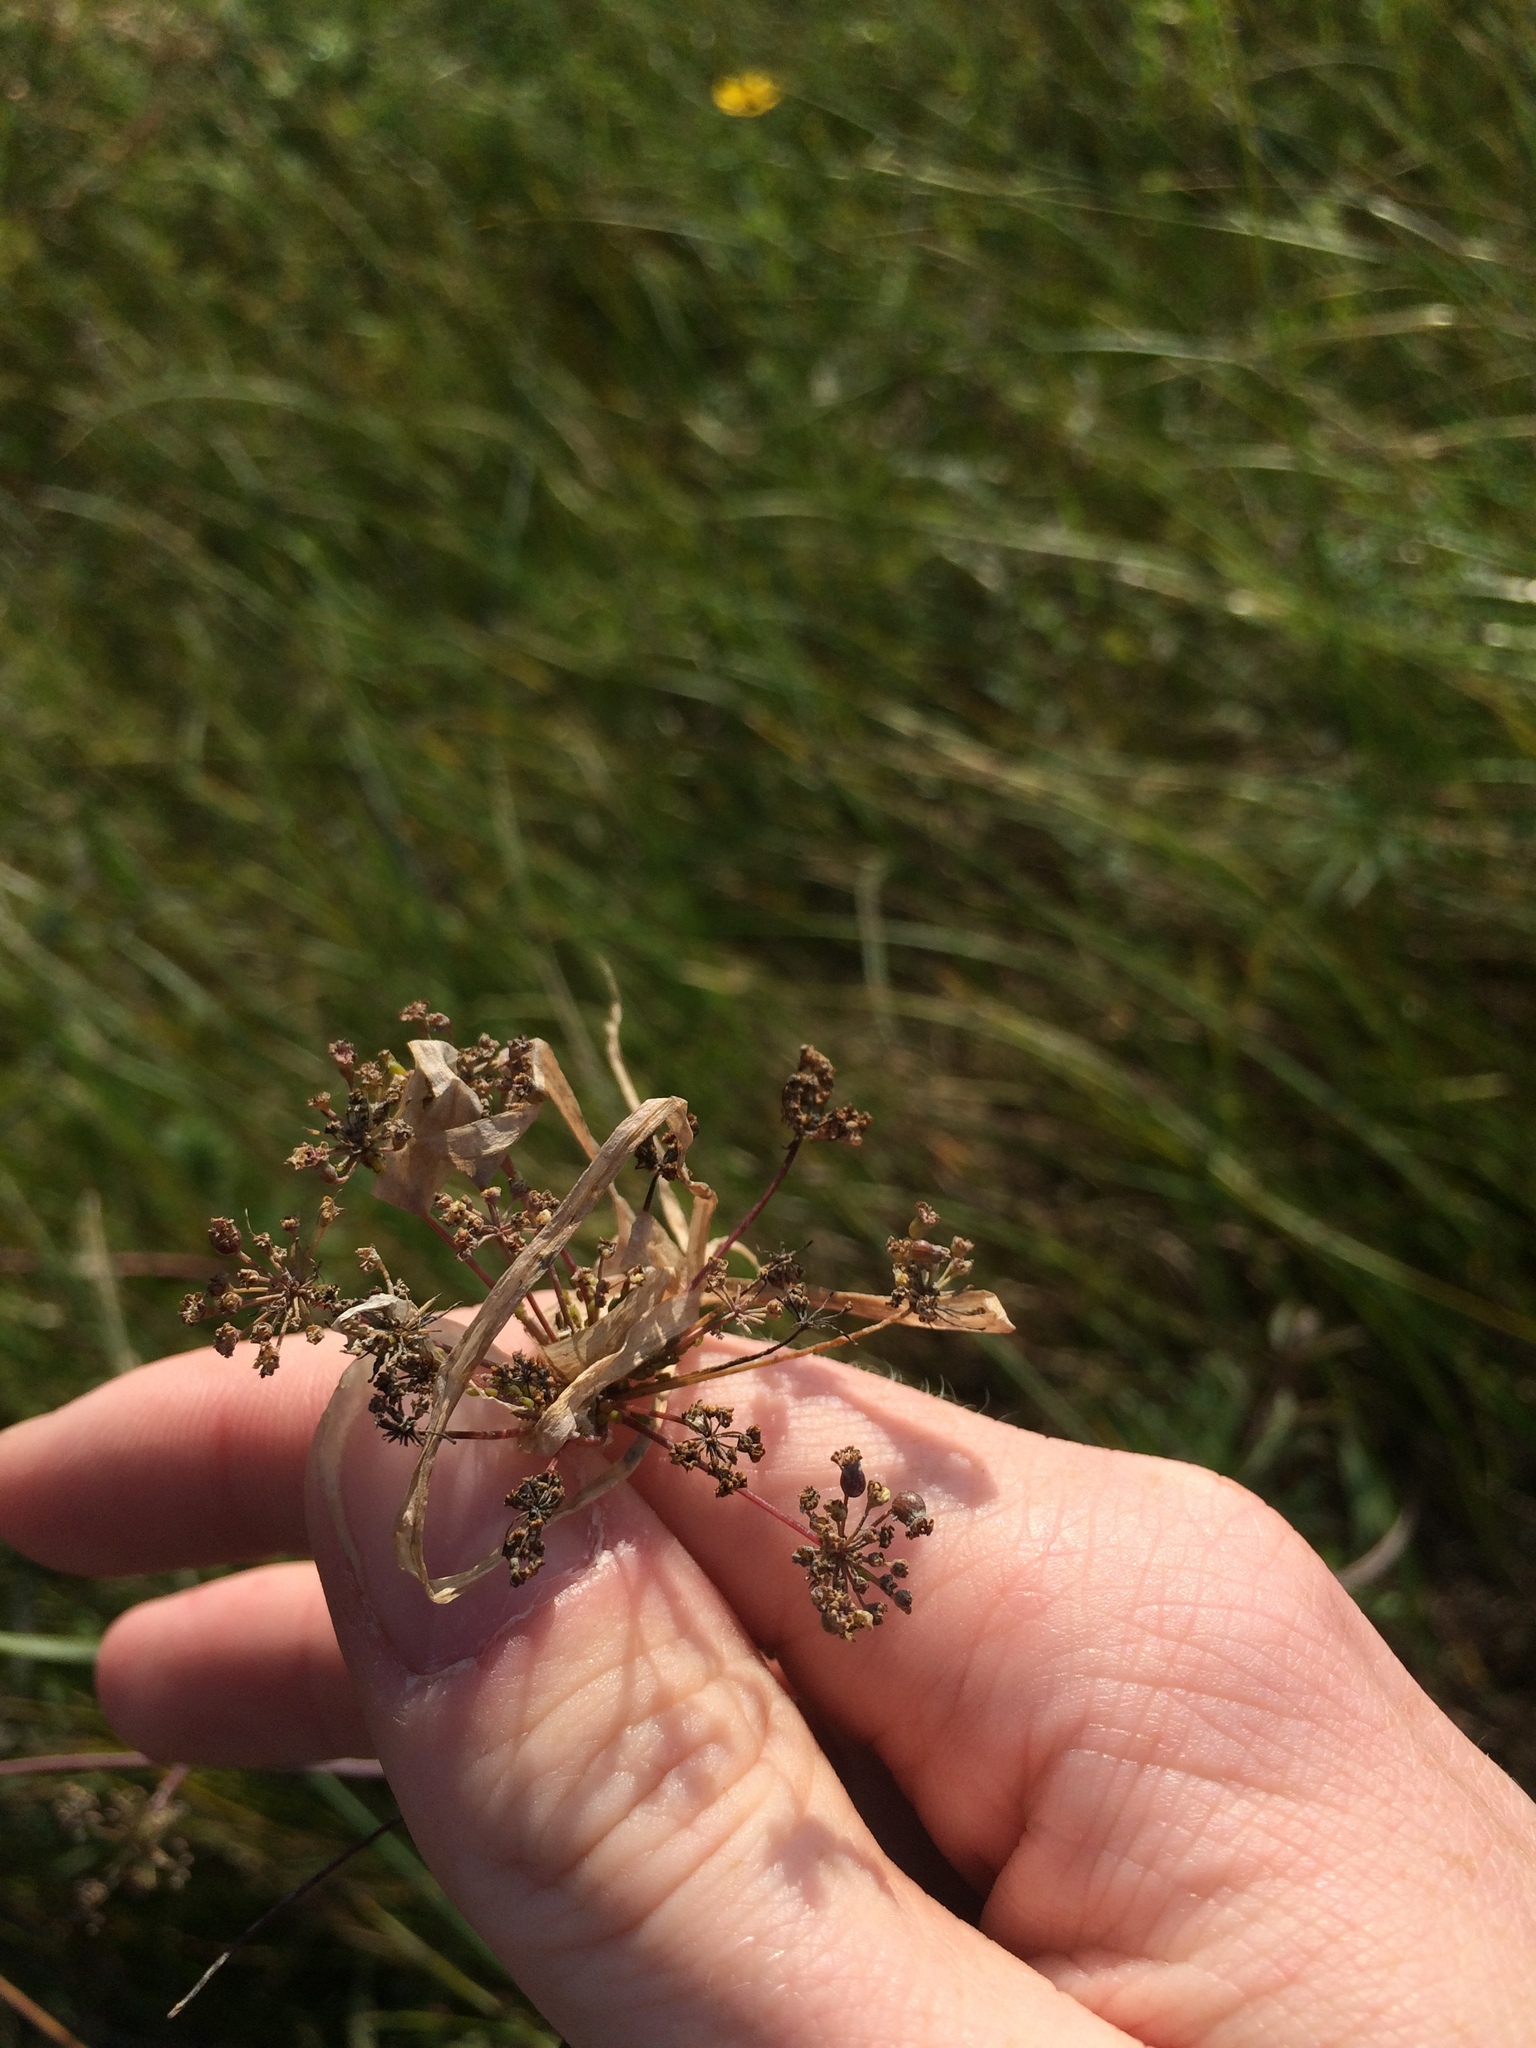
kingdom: Plantae
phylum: Tracheophyta
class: Magnoliopsida
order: Apiales
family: Apiaceae
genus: Cicuta
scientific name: Cicuta maculata
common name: Spotted cowbane
